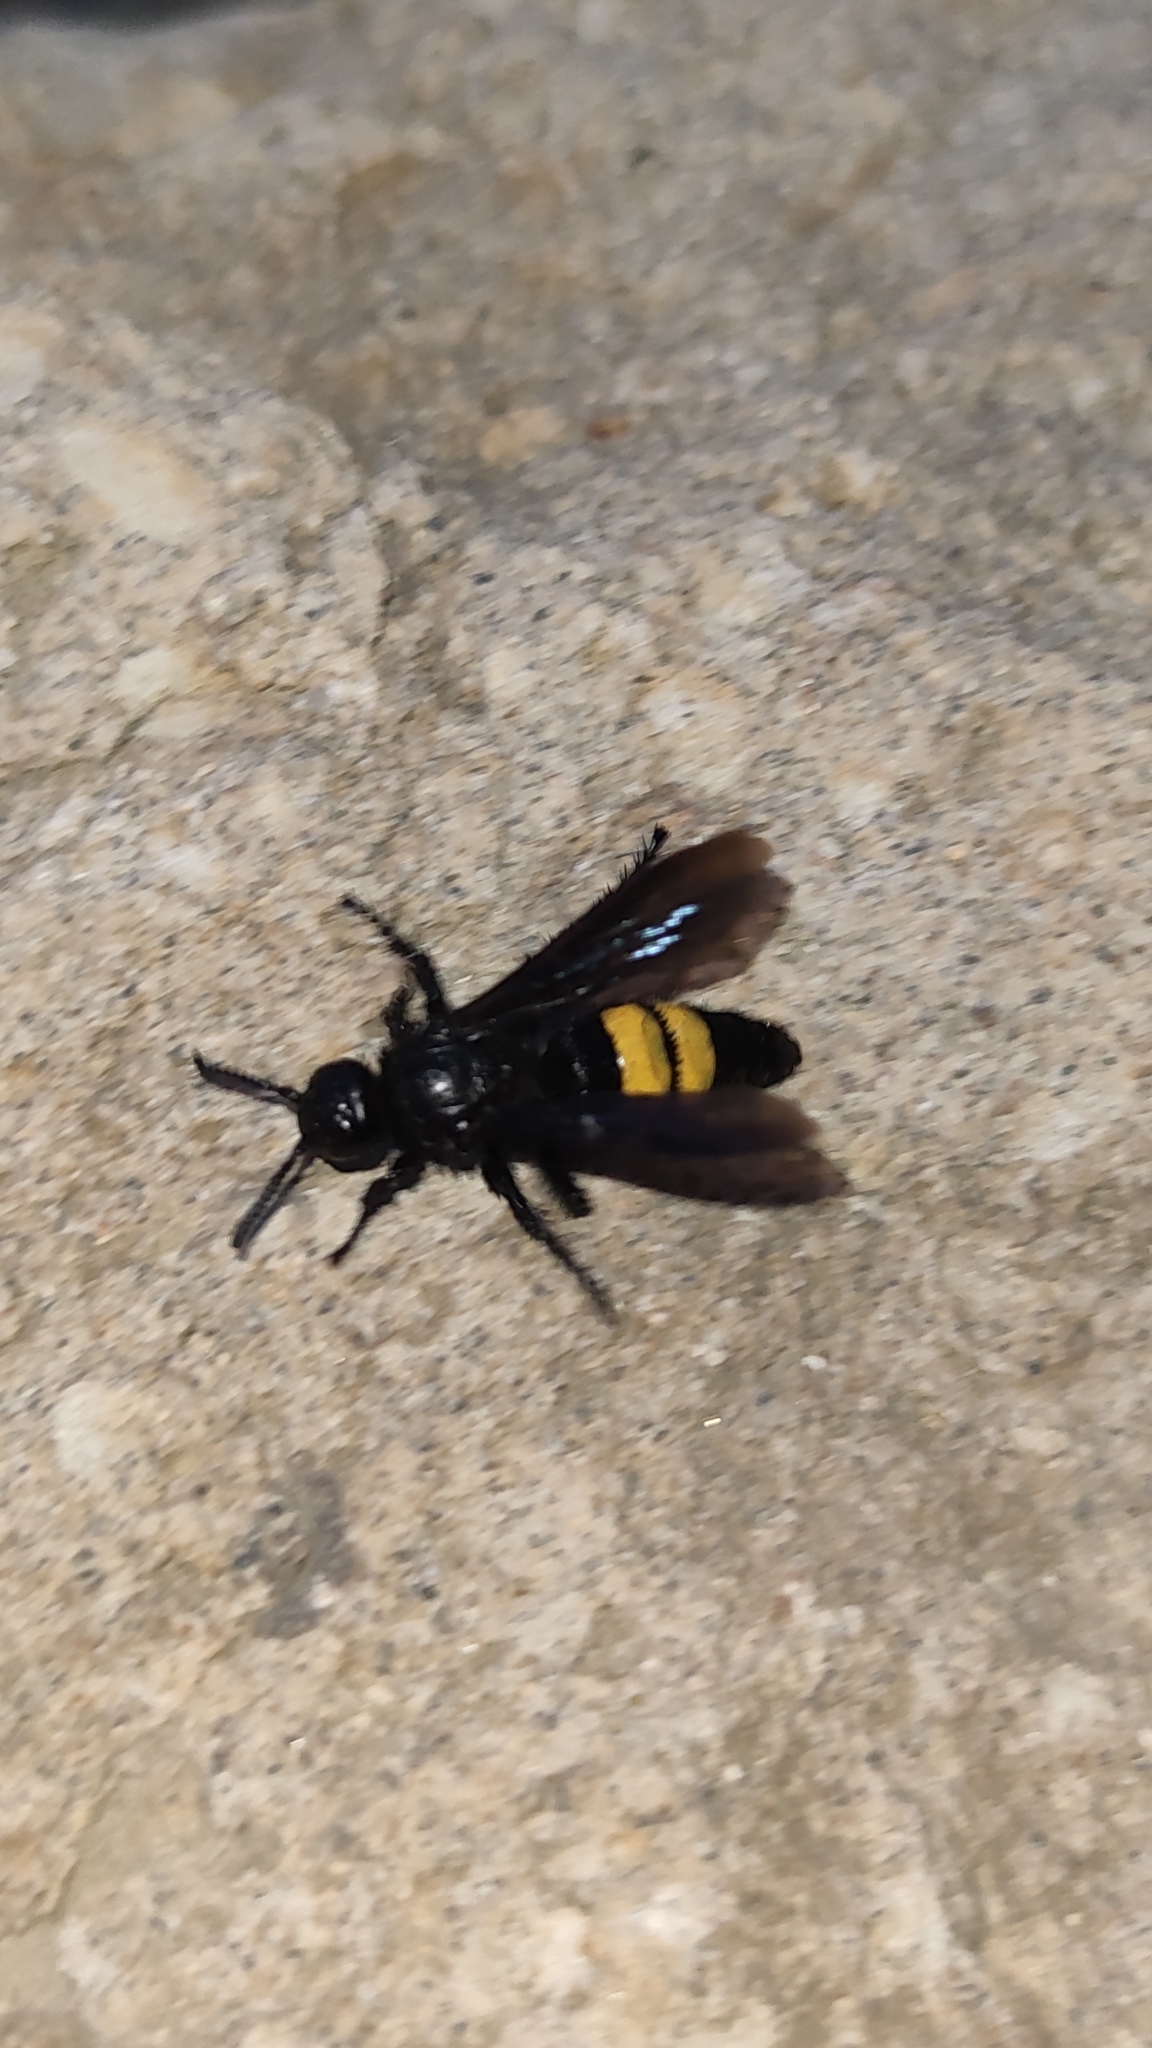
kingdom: Animalia
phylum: Arthropoda
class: Insecta
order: Hymenoptera
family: Scoliidae
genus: Scolia
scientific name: Scolia hirta
